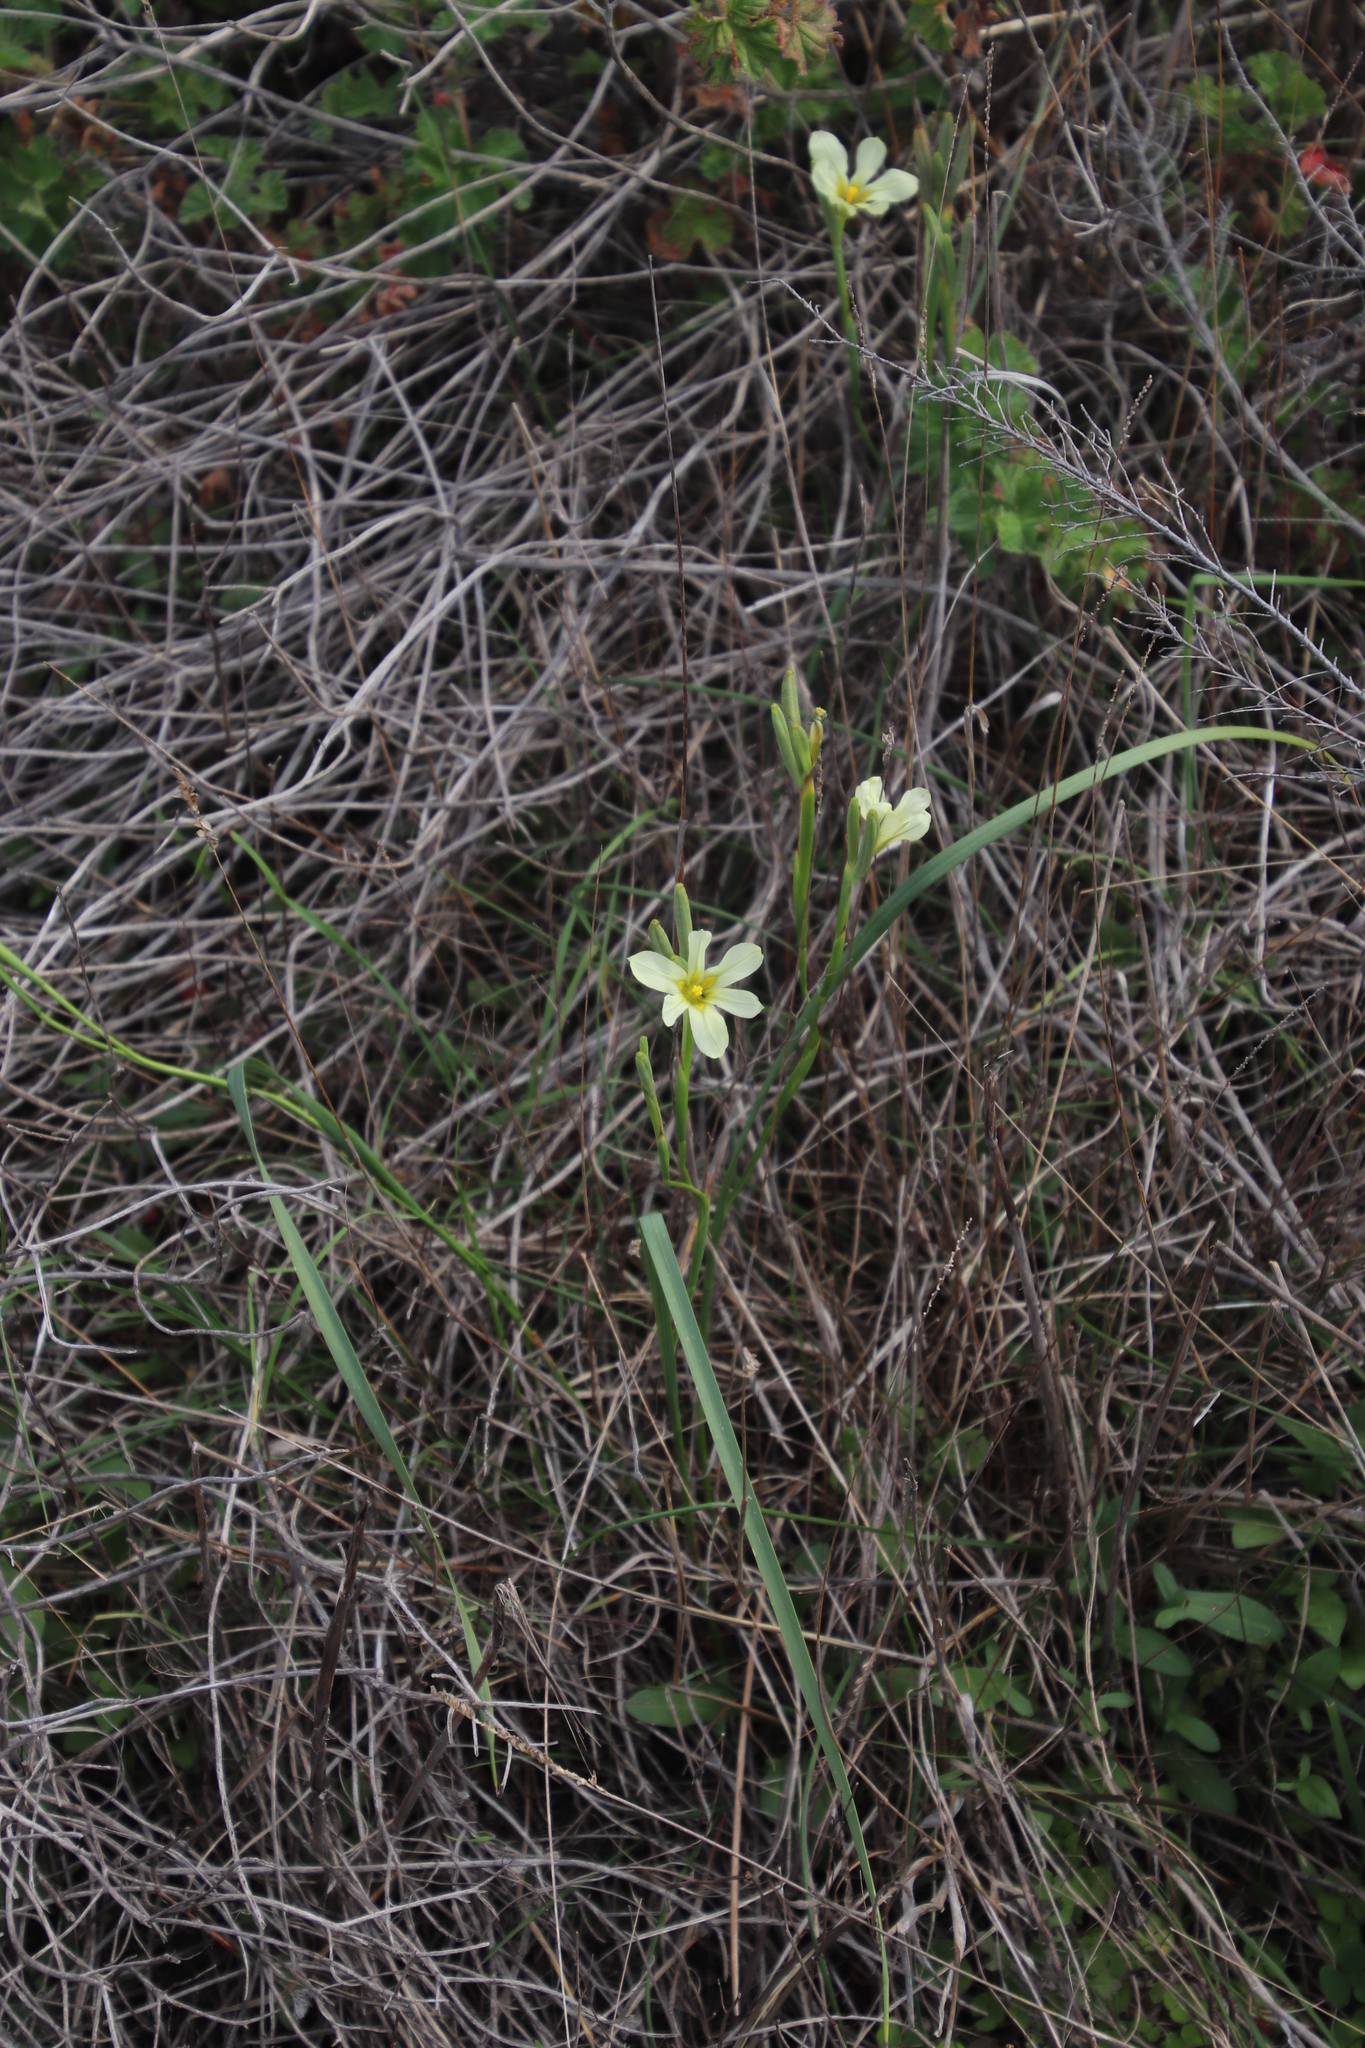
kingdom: Plantae
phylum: Tracheophyta
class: Liliopsida
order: Asparagales
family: Iridaceae
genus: Moraea
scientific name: Moraea collina
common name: Cape-tulip
